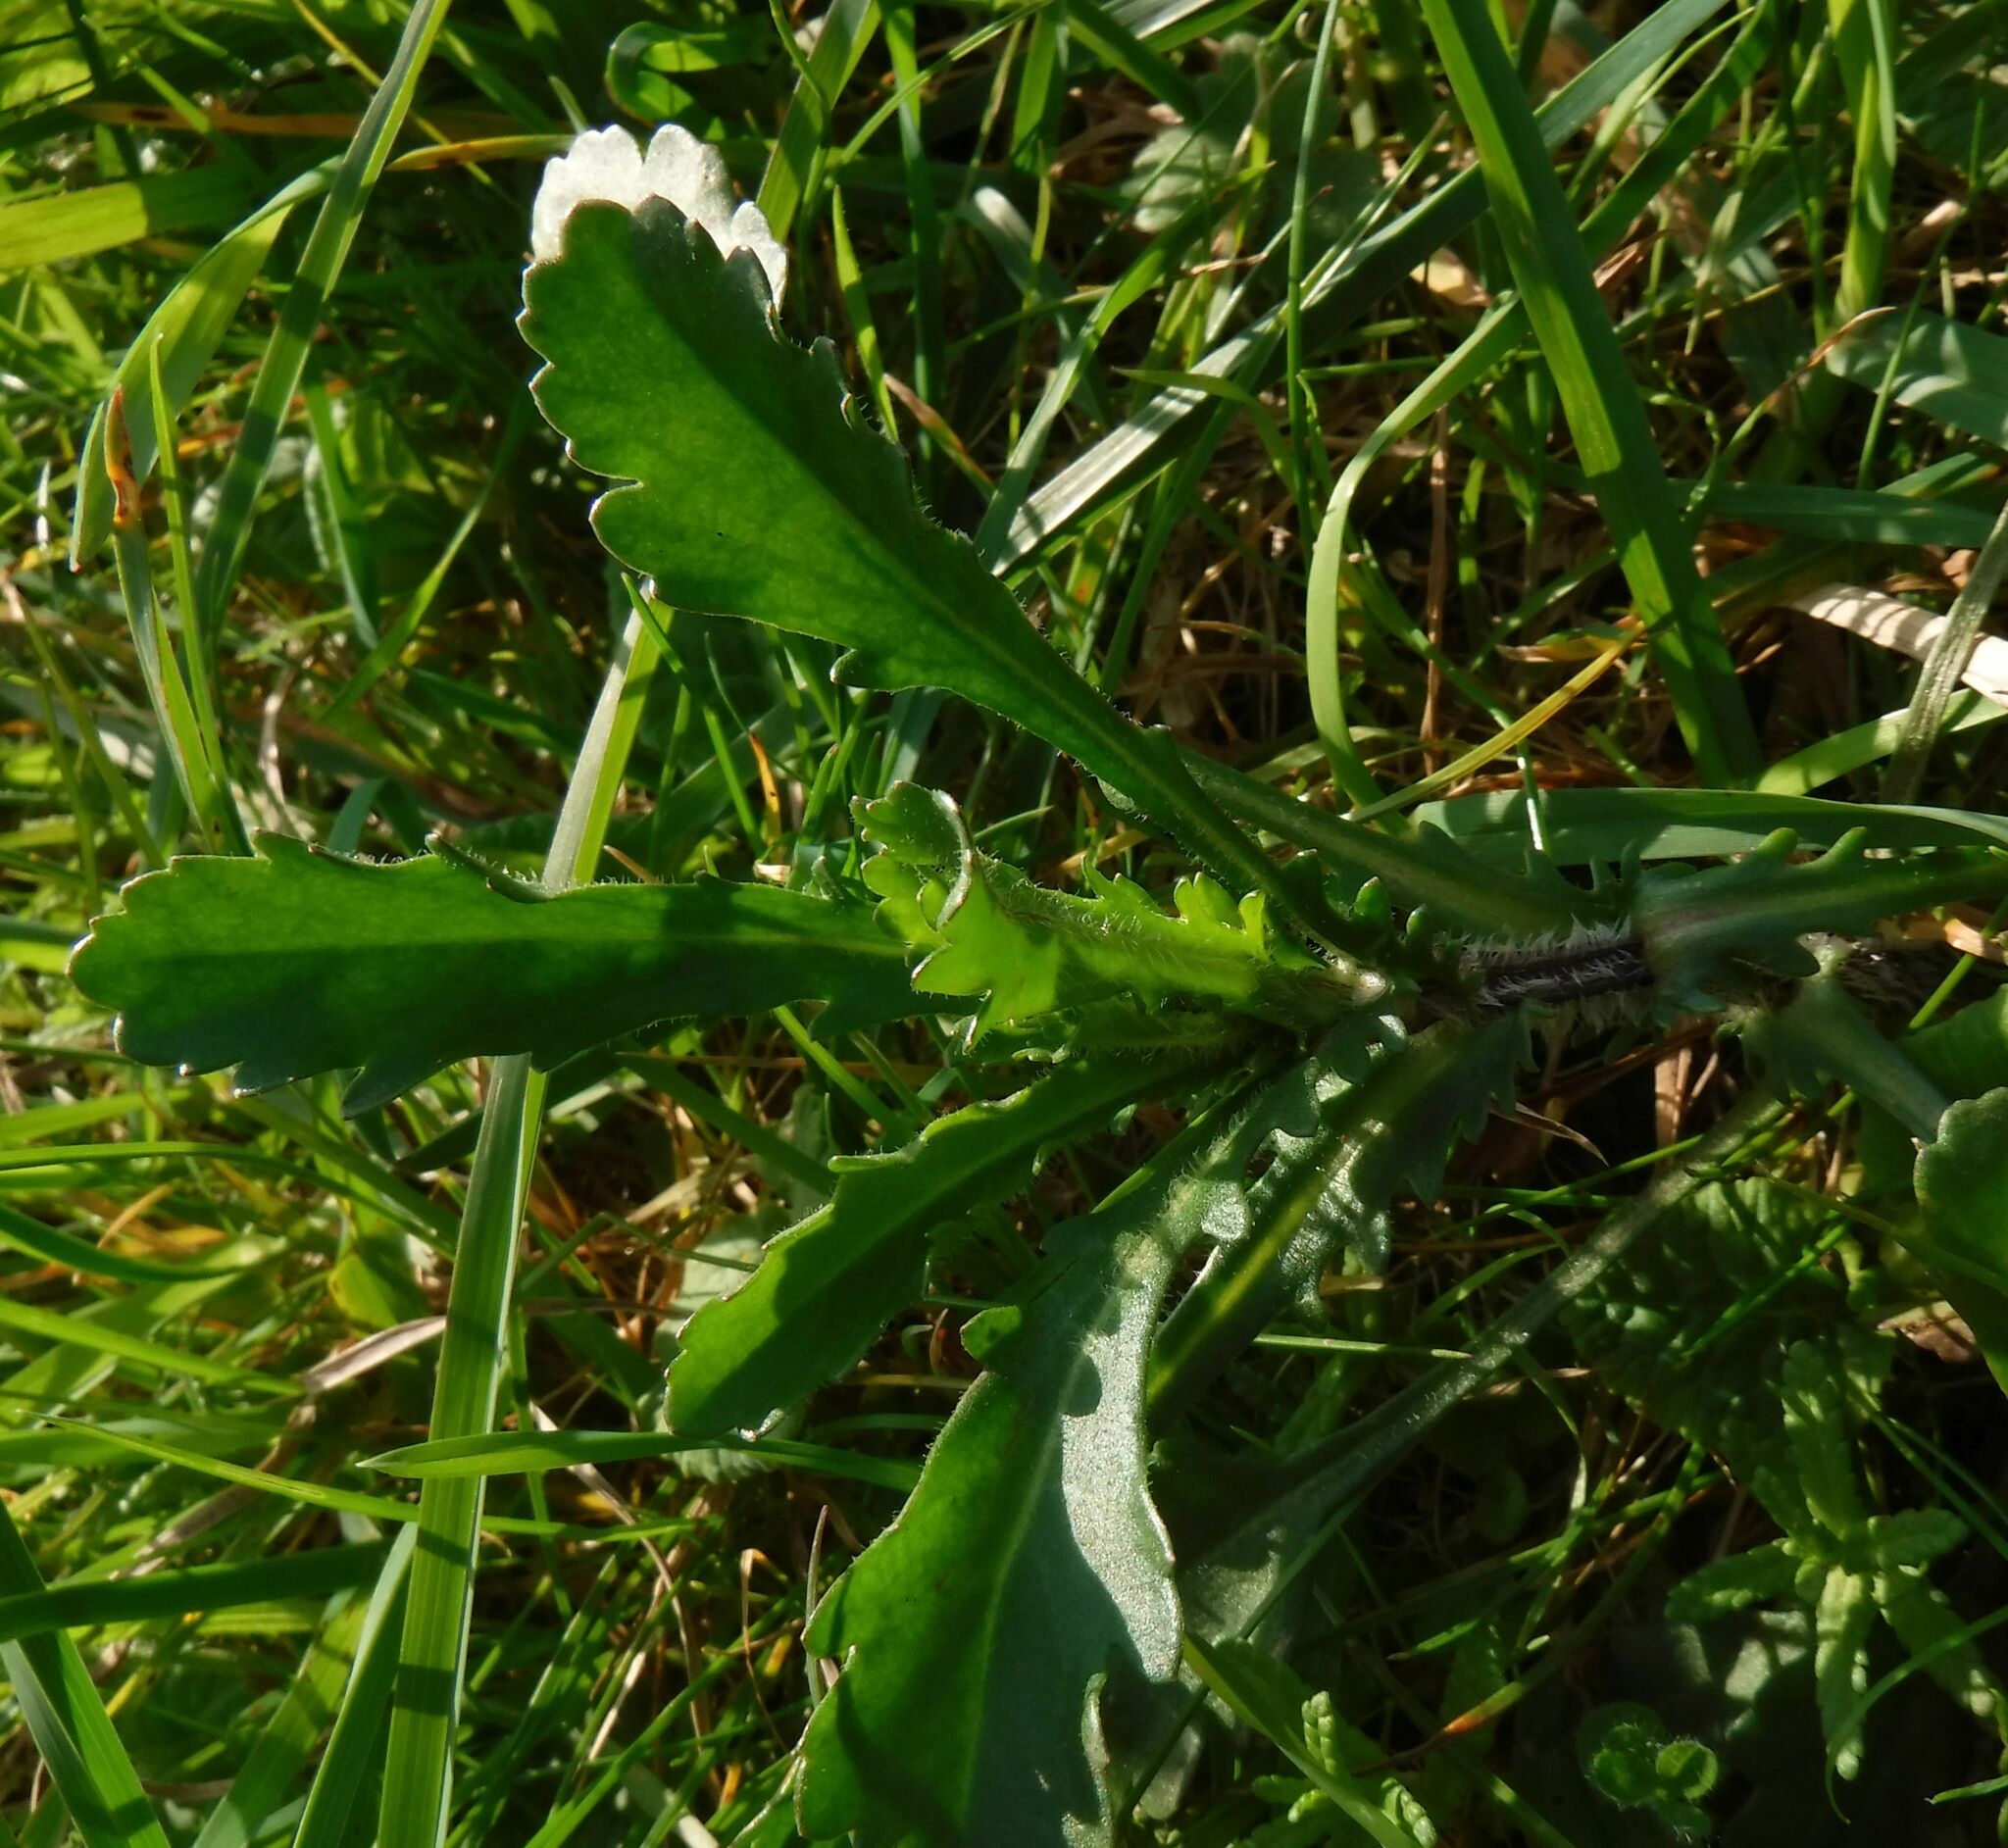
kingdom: Plantae
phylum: Tracheophyta
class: Magnoliopsida
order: Asterales
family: Asteraceae
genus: Leucanthemum
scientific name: Leucanthemum vulgare
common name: Oxeye daisy
